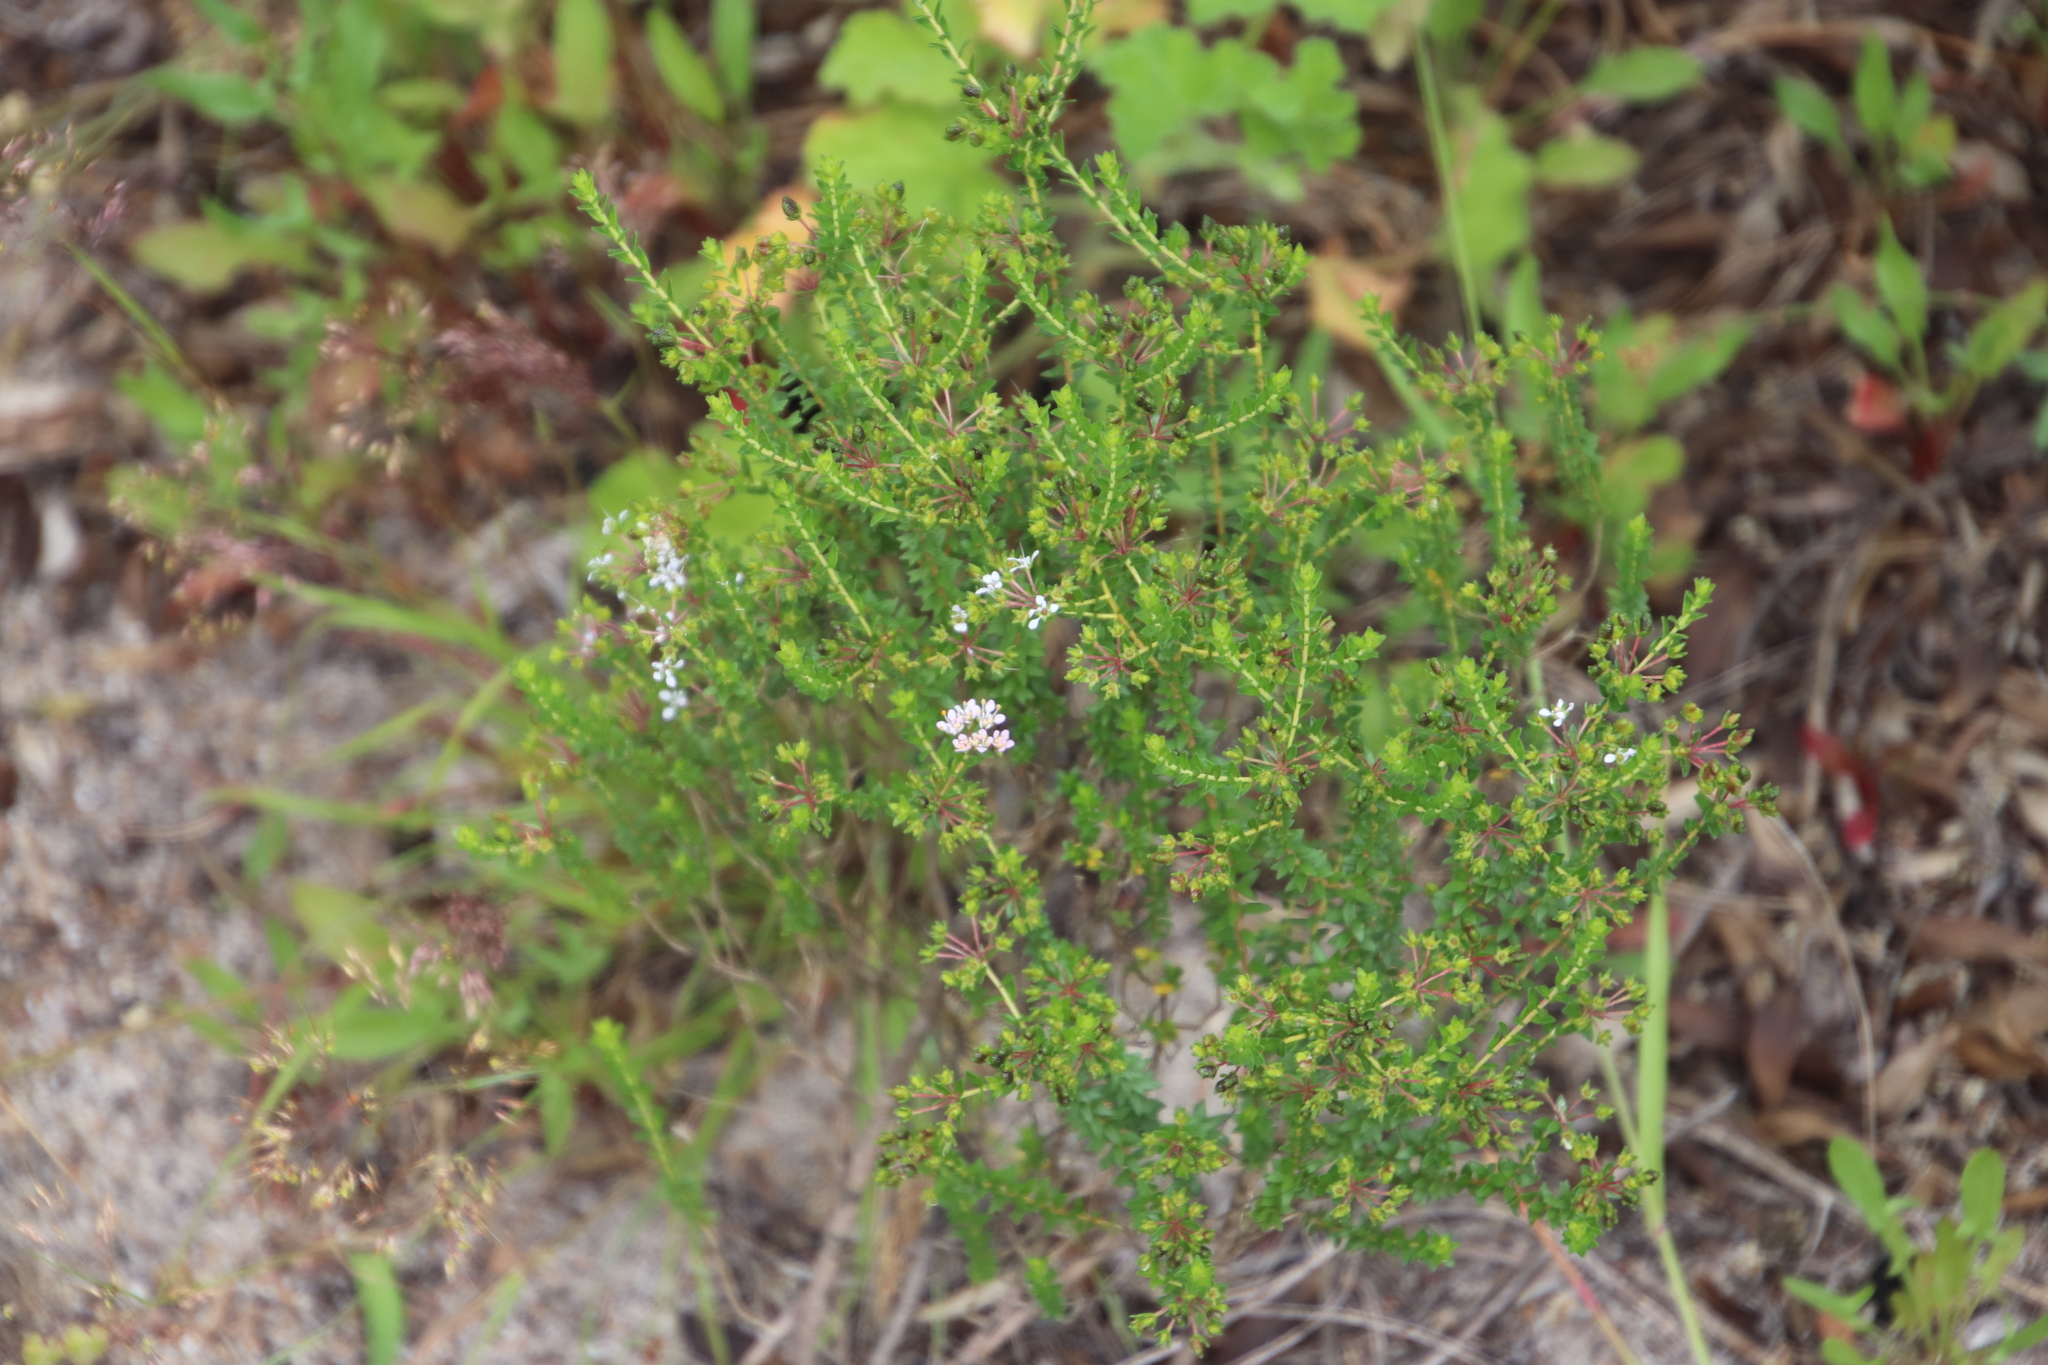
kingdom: Plantae
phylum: Tracheophyta
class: Magnoliopsida
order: Sapindales
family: Rutaceae
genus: Agathosma
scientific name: Agathosma glabrata
